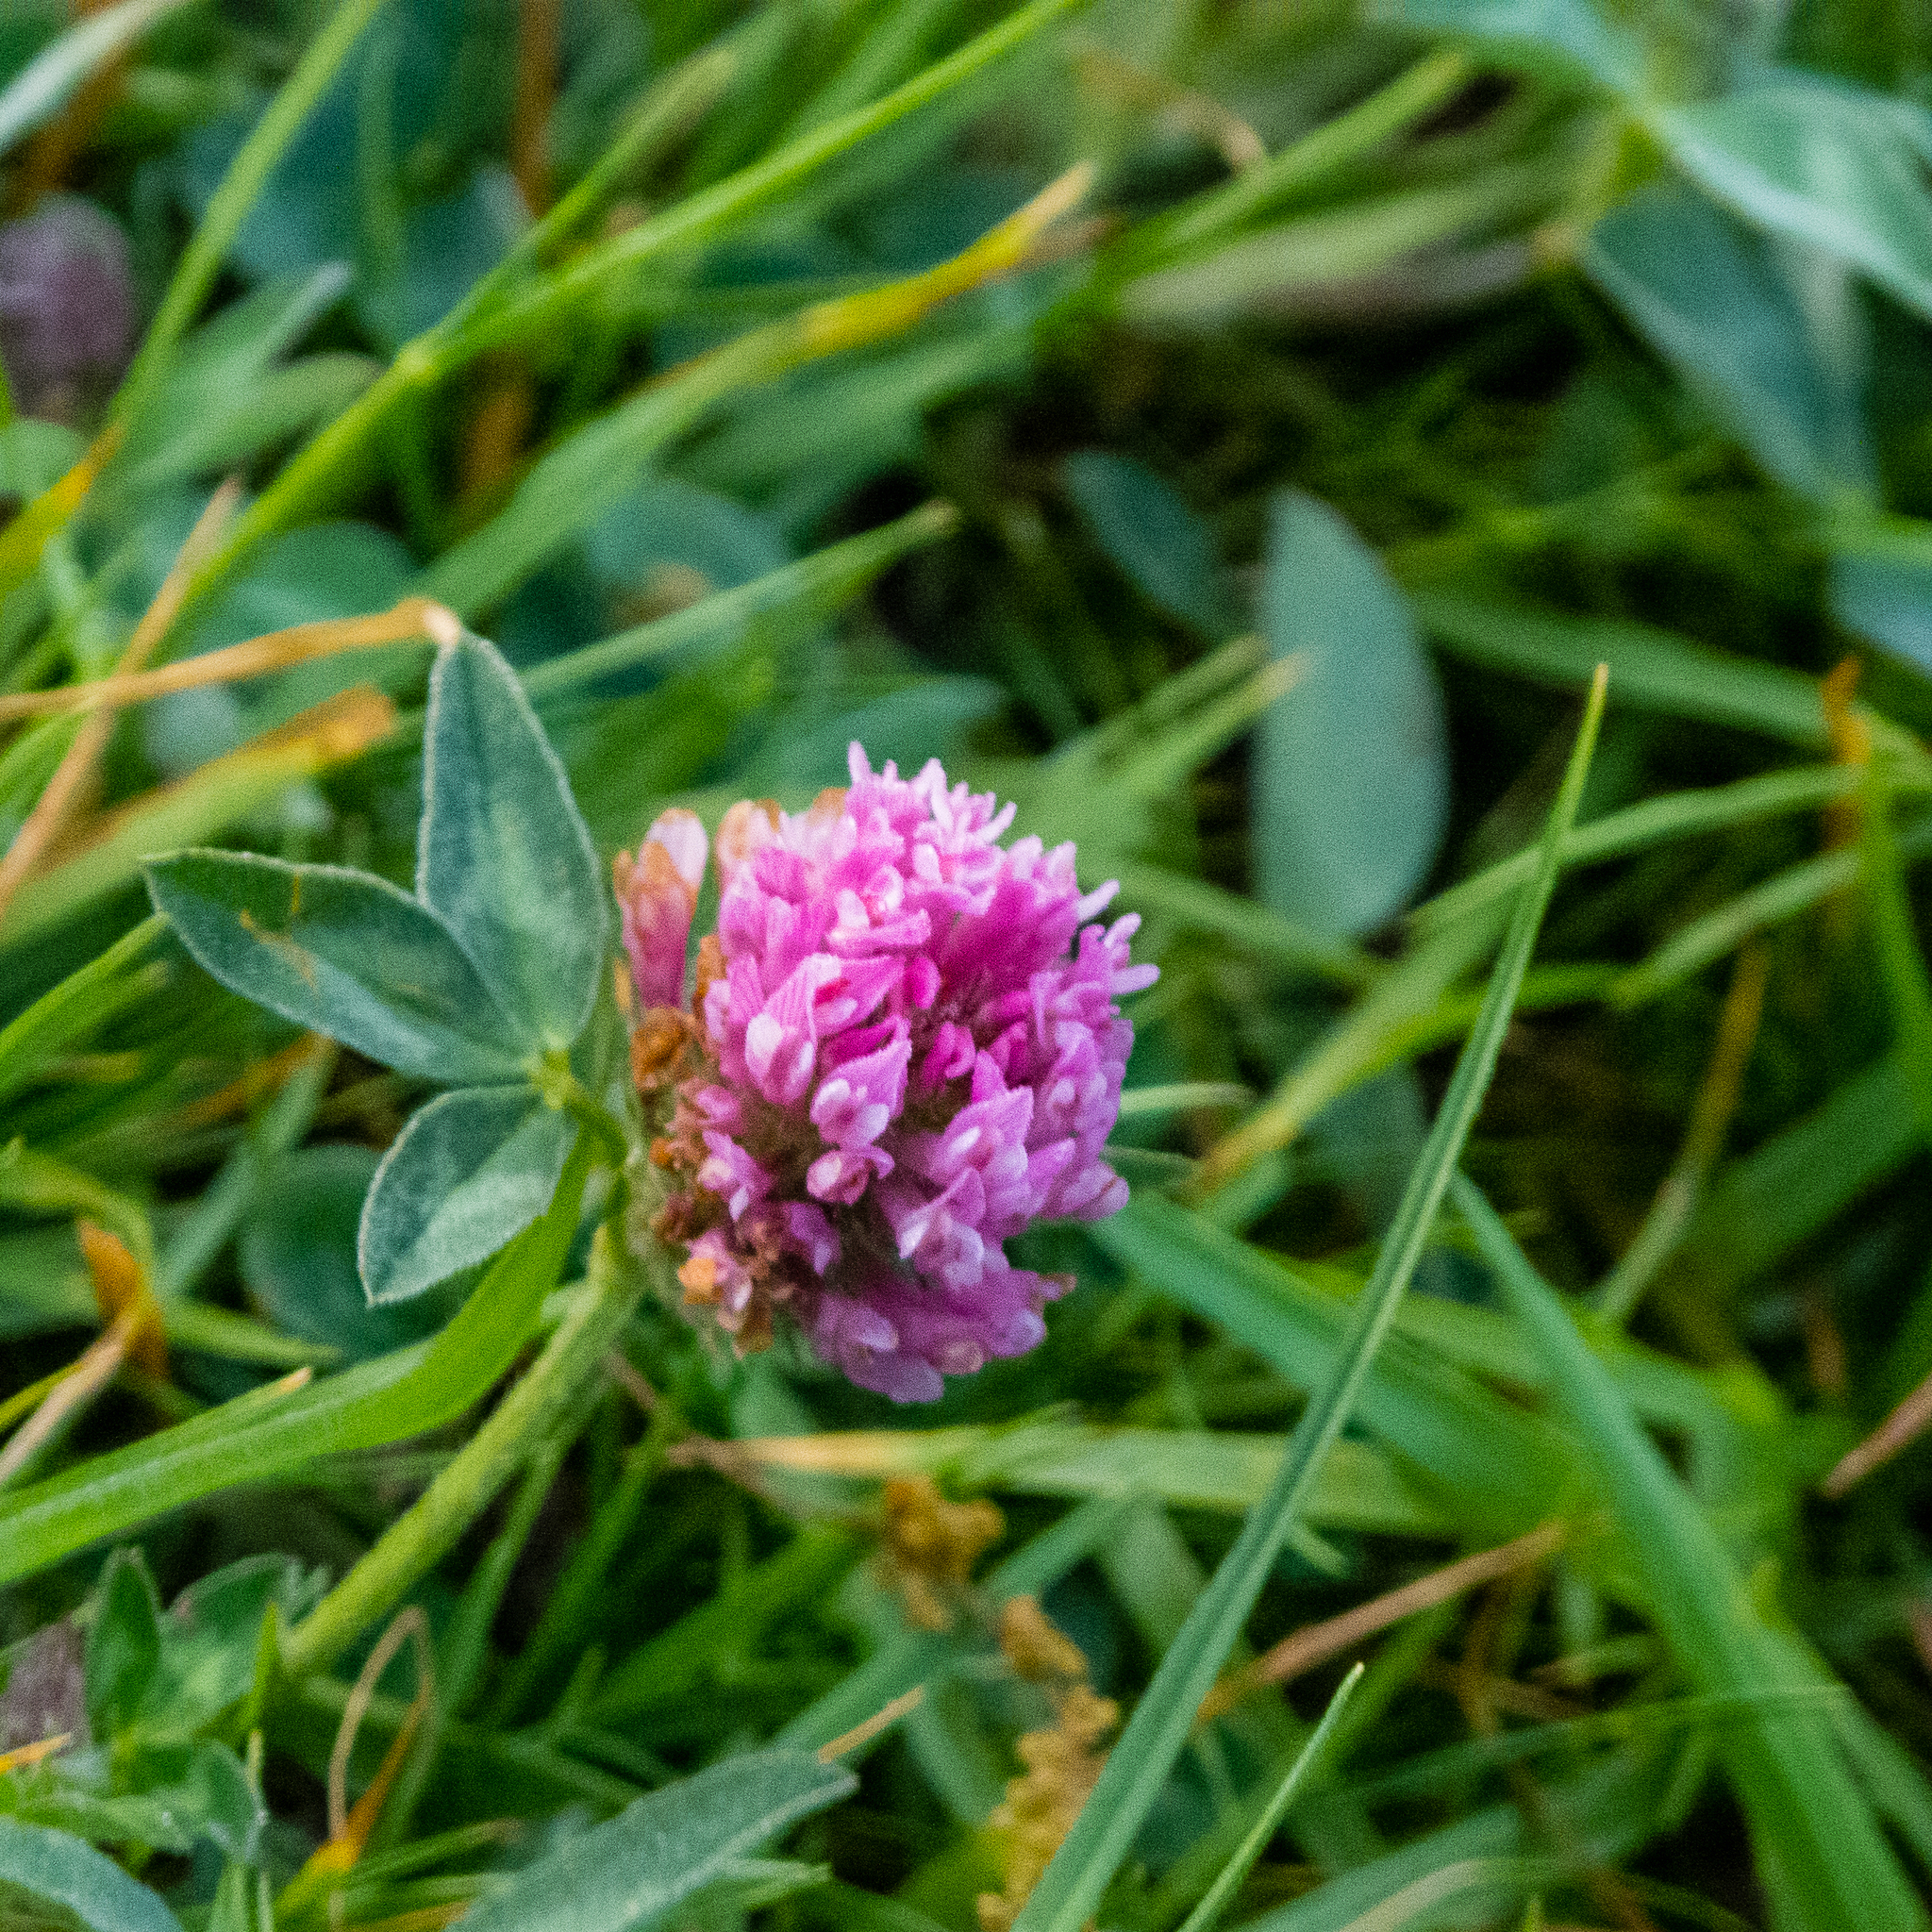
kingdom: Plantae
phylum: Tracheophyta
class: Magnoliopsida
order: Fabales
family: Fabaceae
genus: Trifolium
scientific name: Trifolium pratense
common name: Red clover
